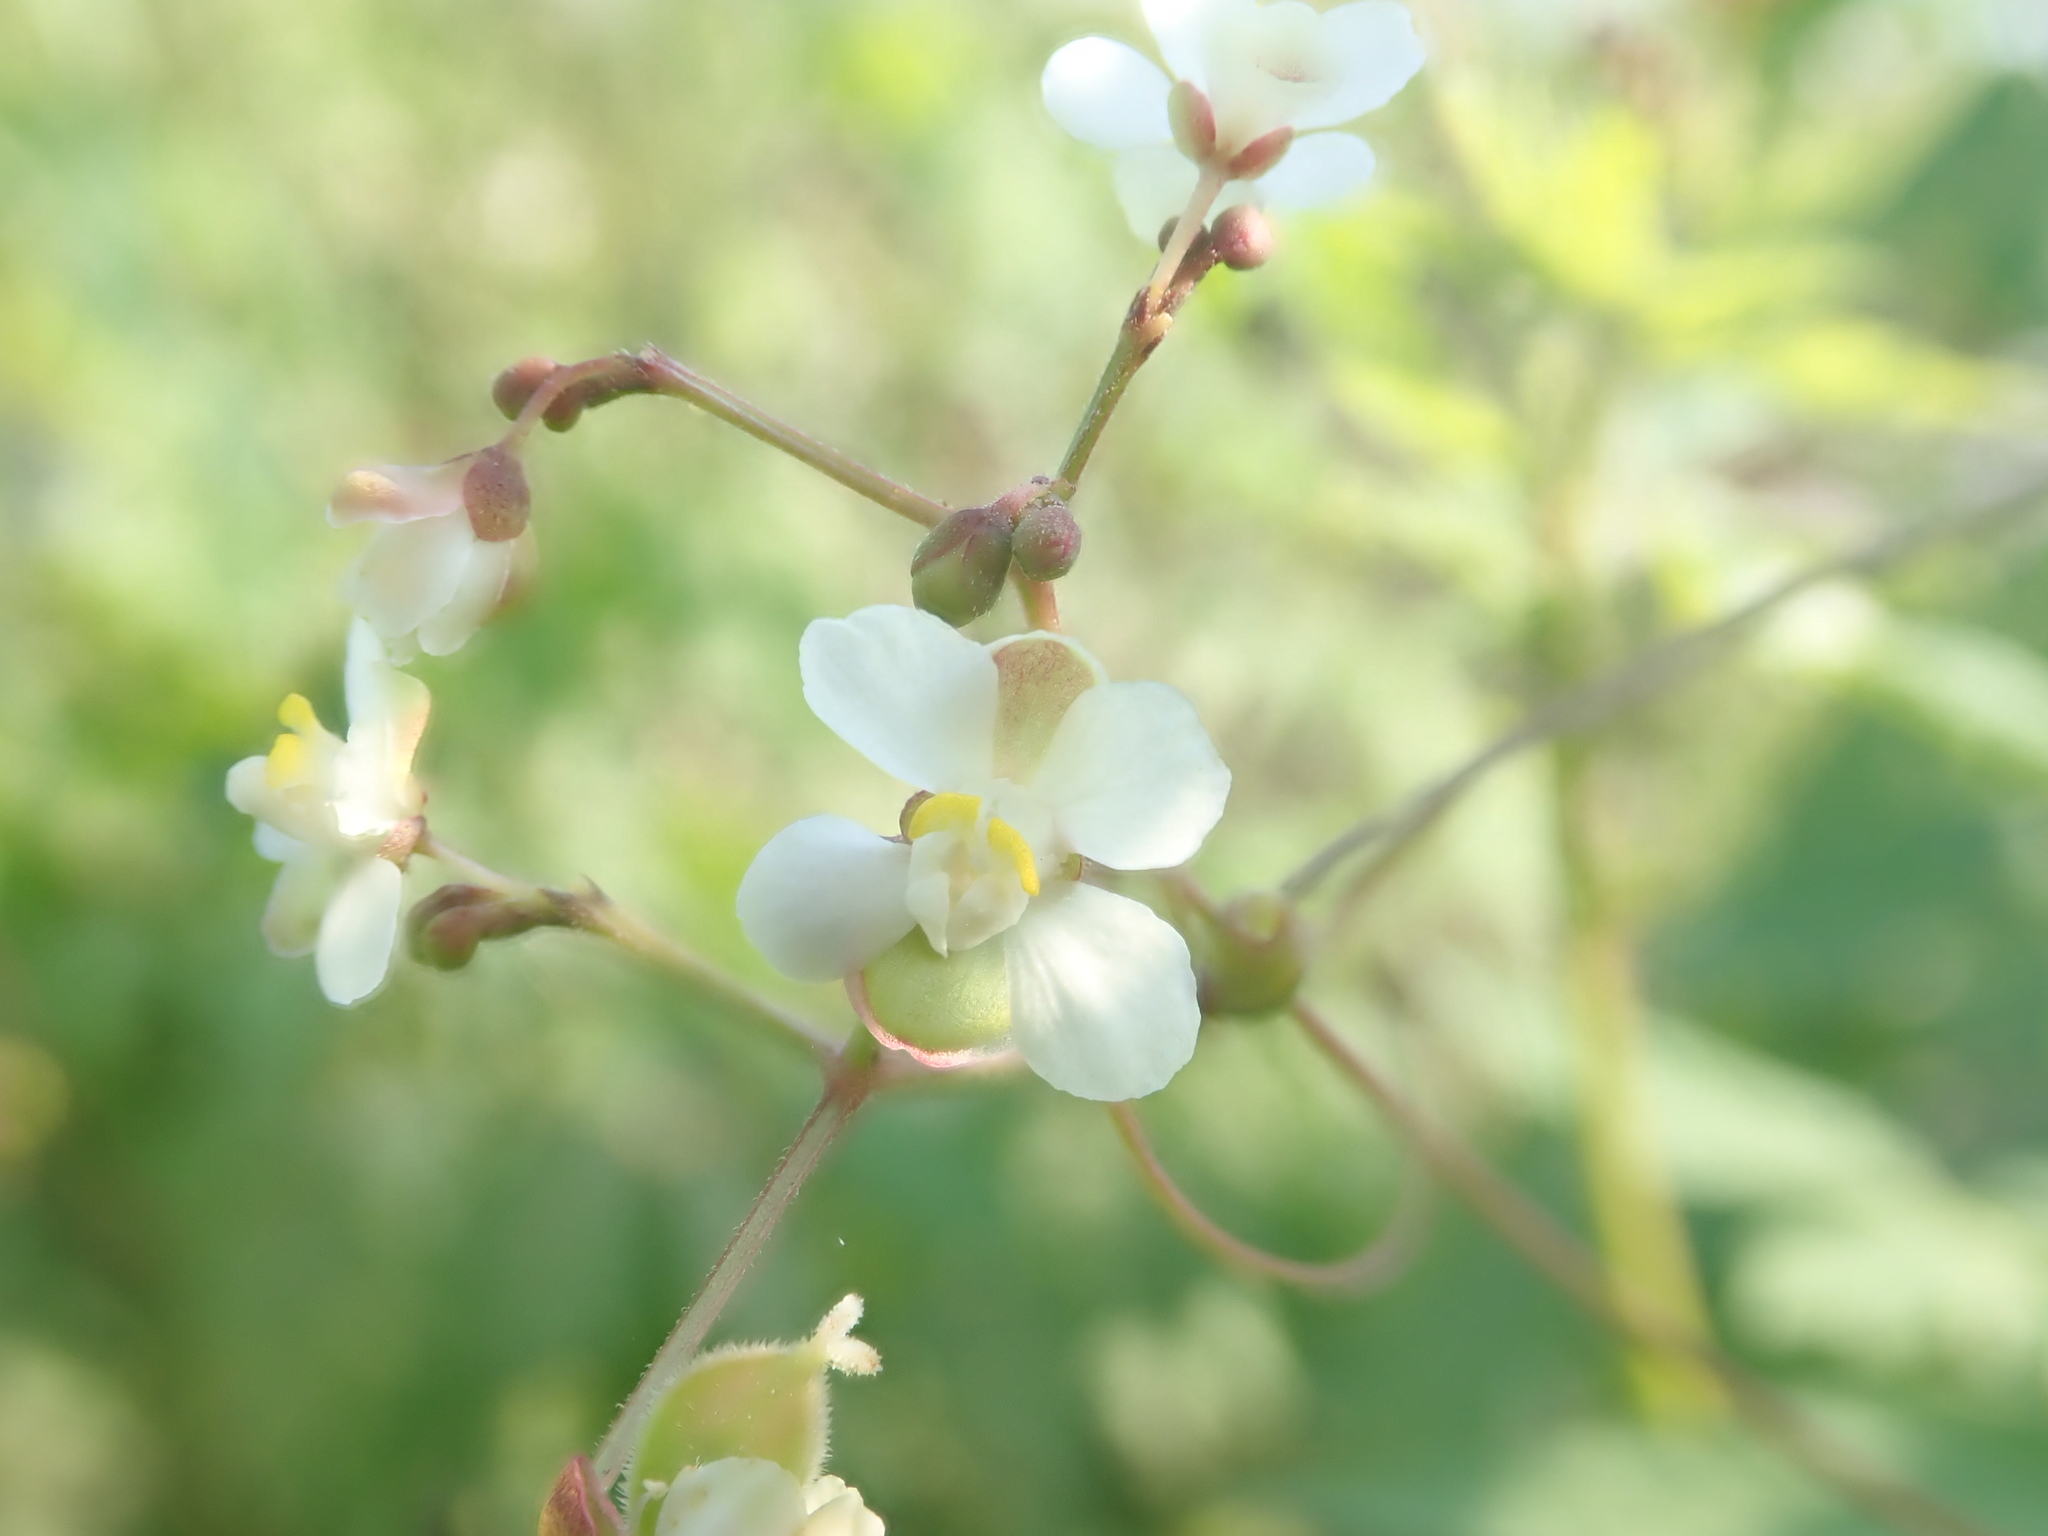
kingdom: Plantae
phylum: Tracheophyta
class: Magnoliopsida
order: Sapindales
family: Sapindaceae
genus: Cardiospermum
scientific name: Cardiospermum halicacabum
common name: Balloon vine
